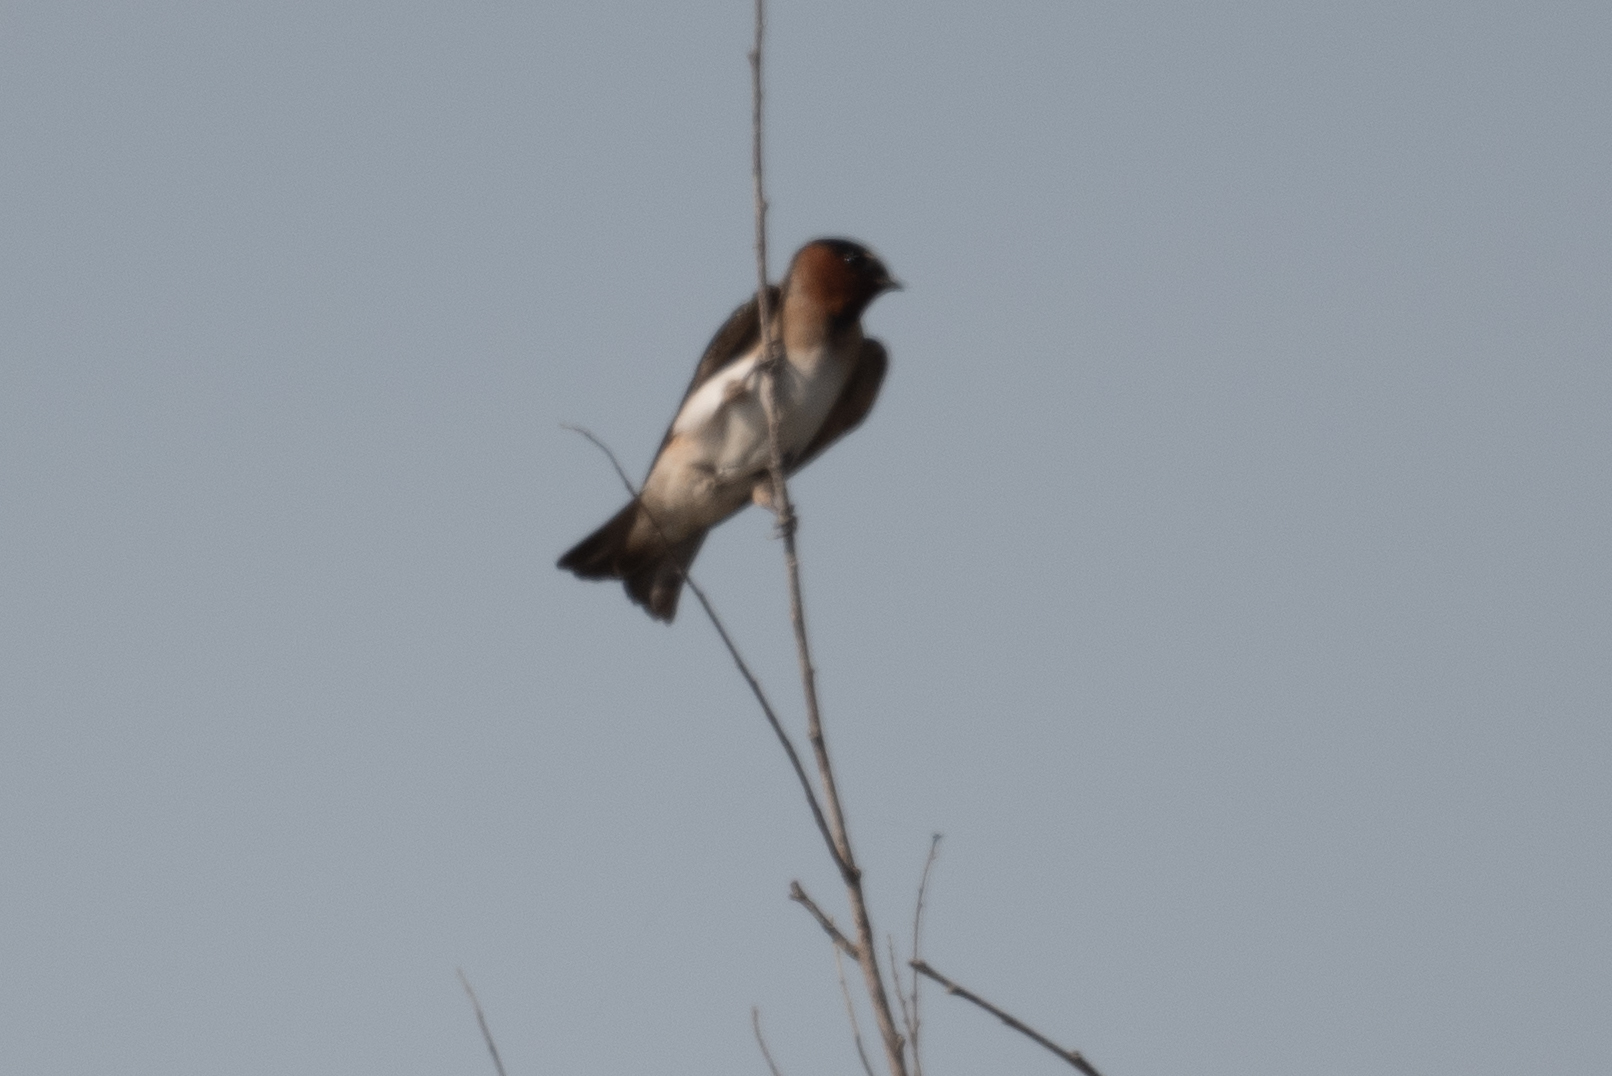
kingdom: Animalia
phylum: Chordata
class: Aves
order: Passeriformes
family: Hirundinidae
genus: Petrochelidon
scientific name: Petrochelidon pyrrhonota
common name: American cliff swallow
